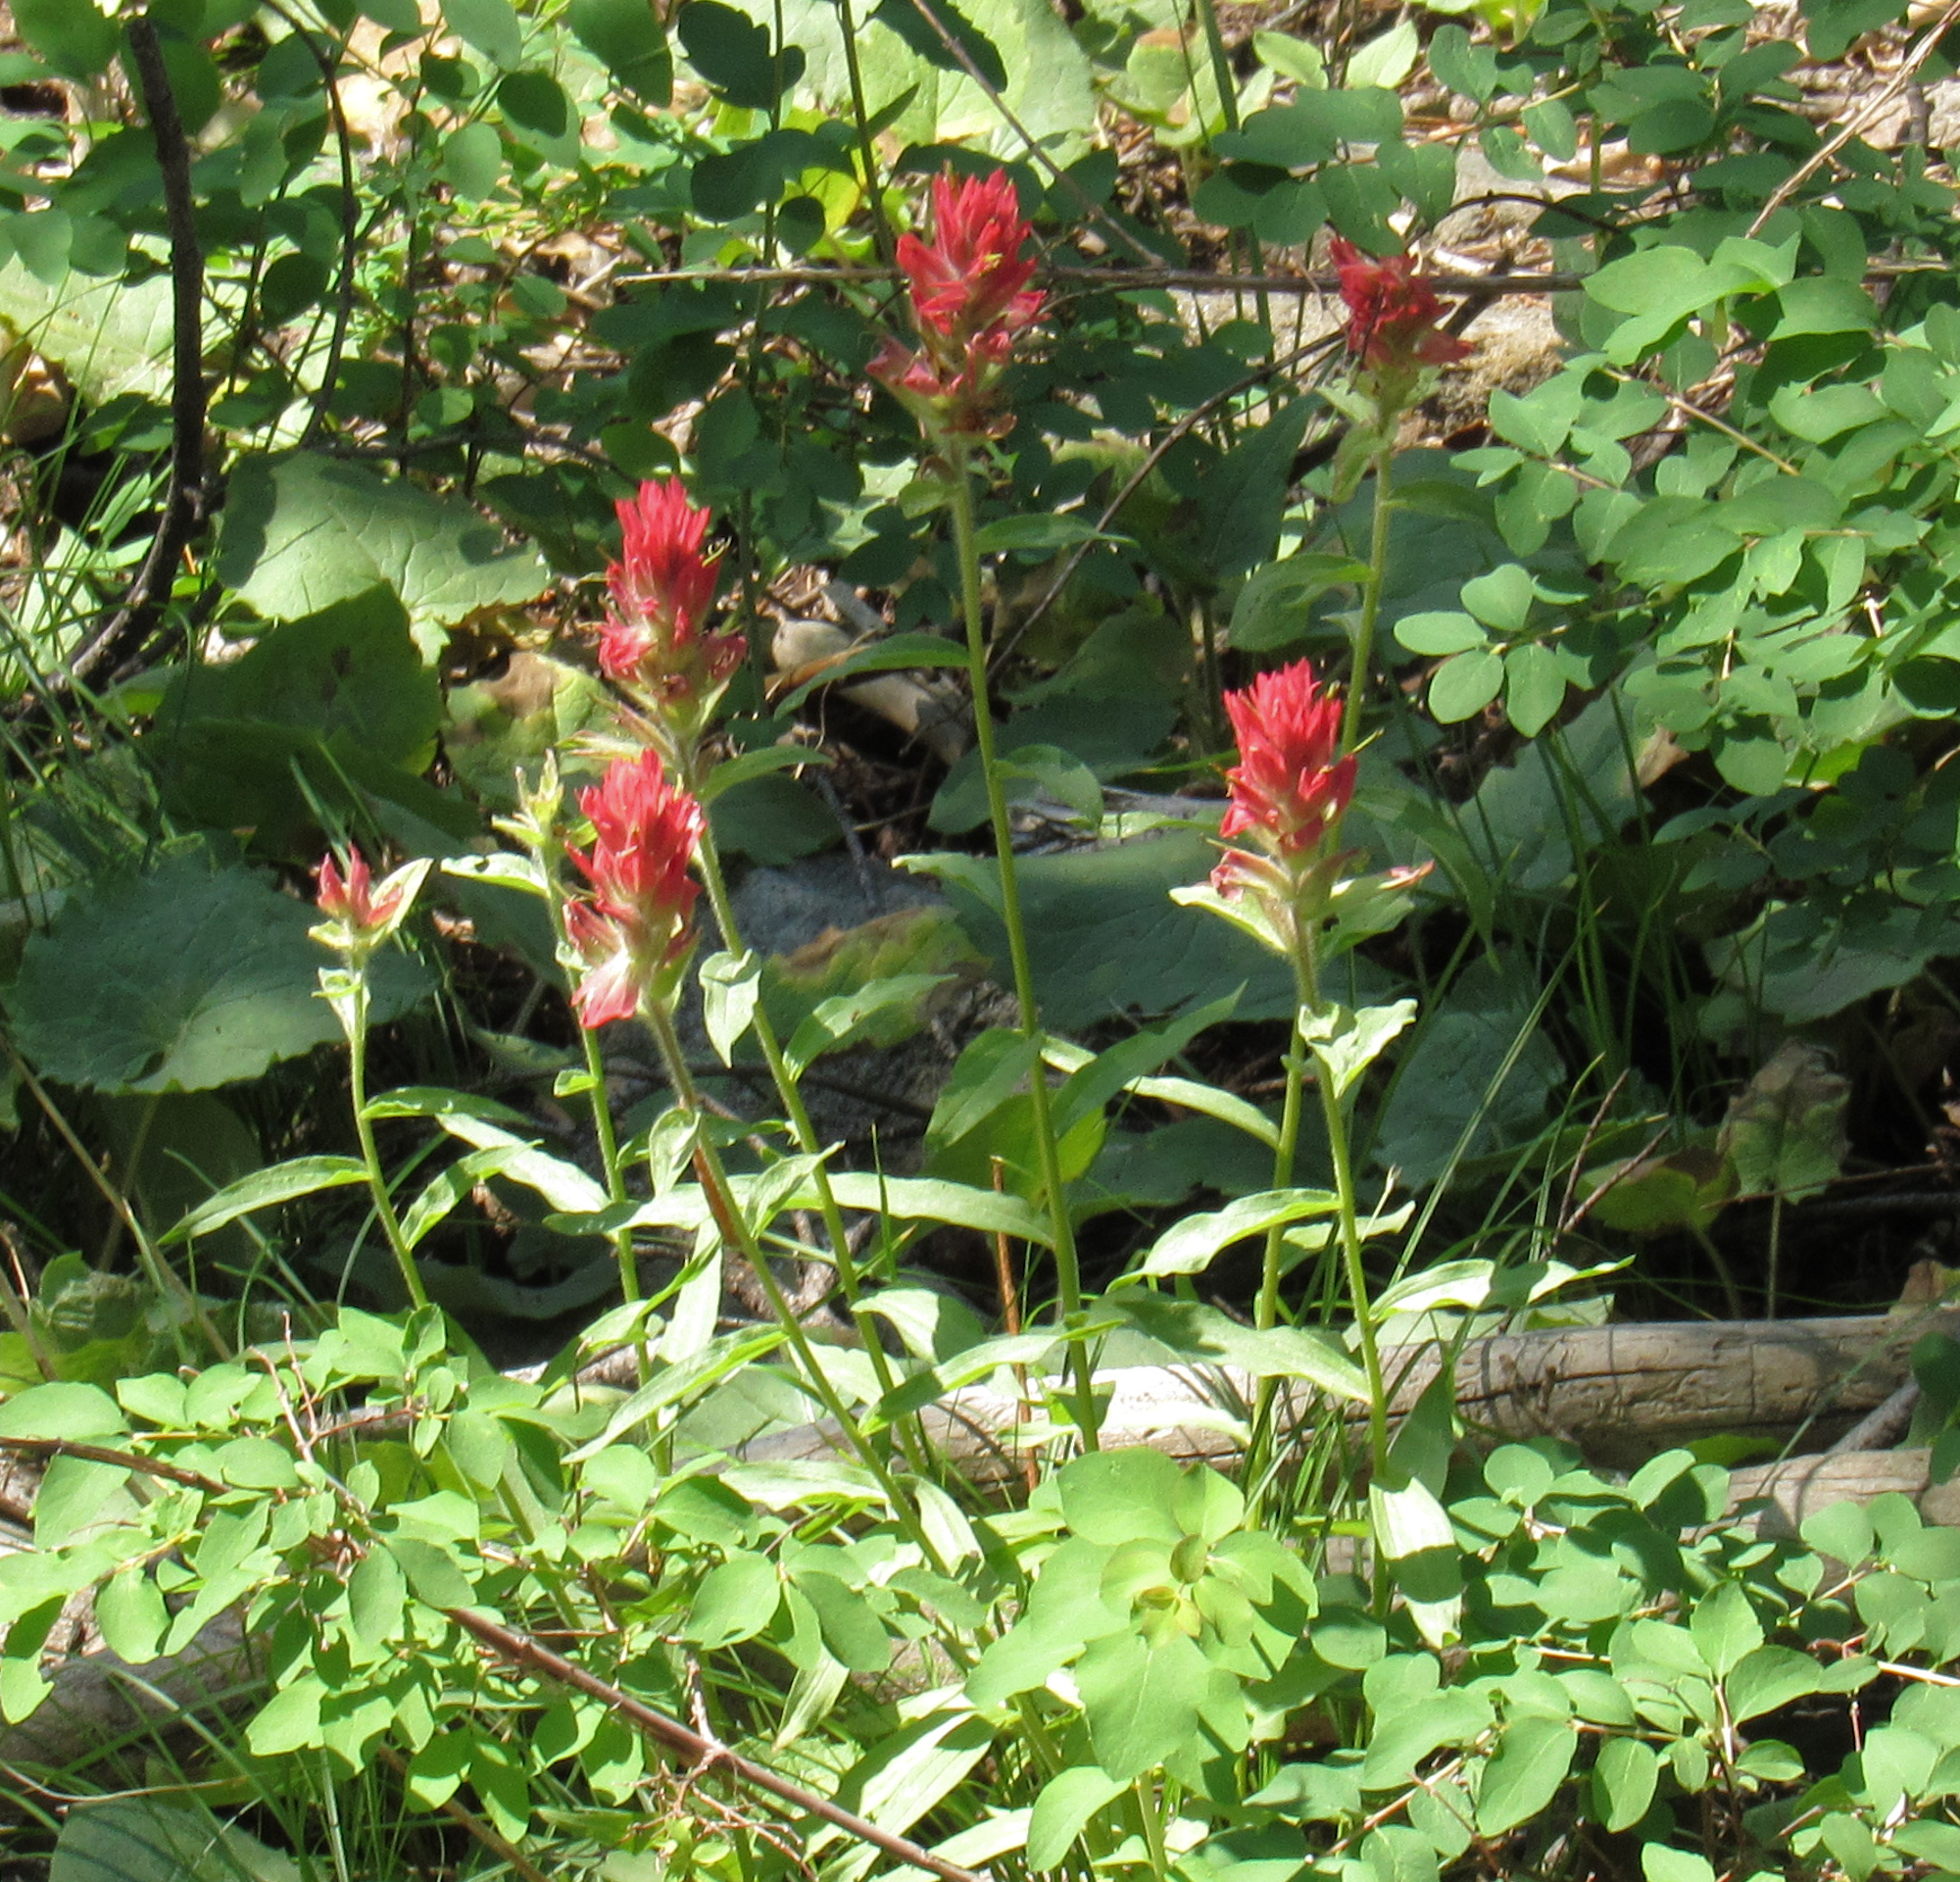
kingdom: Plantae
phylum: Tracheophyta
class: Magnoliopsida
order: Lamiales
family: Orobanchaceae
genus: Castilleja
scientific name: Castilleja miniata
